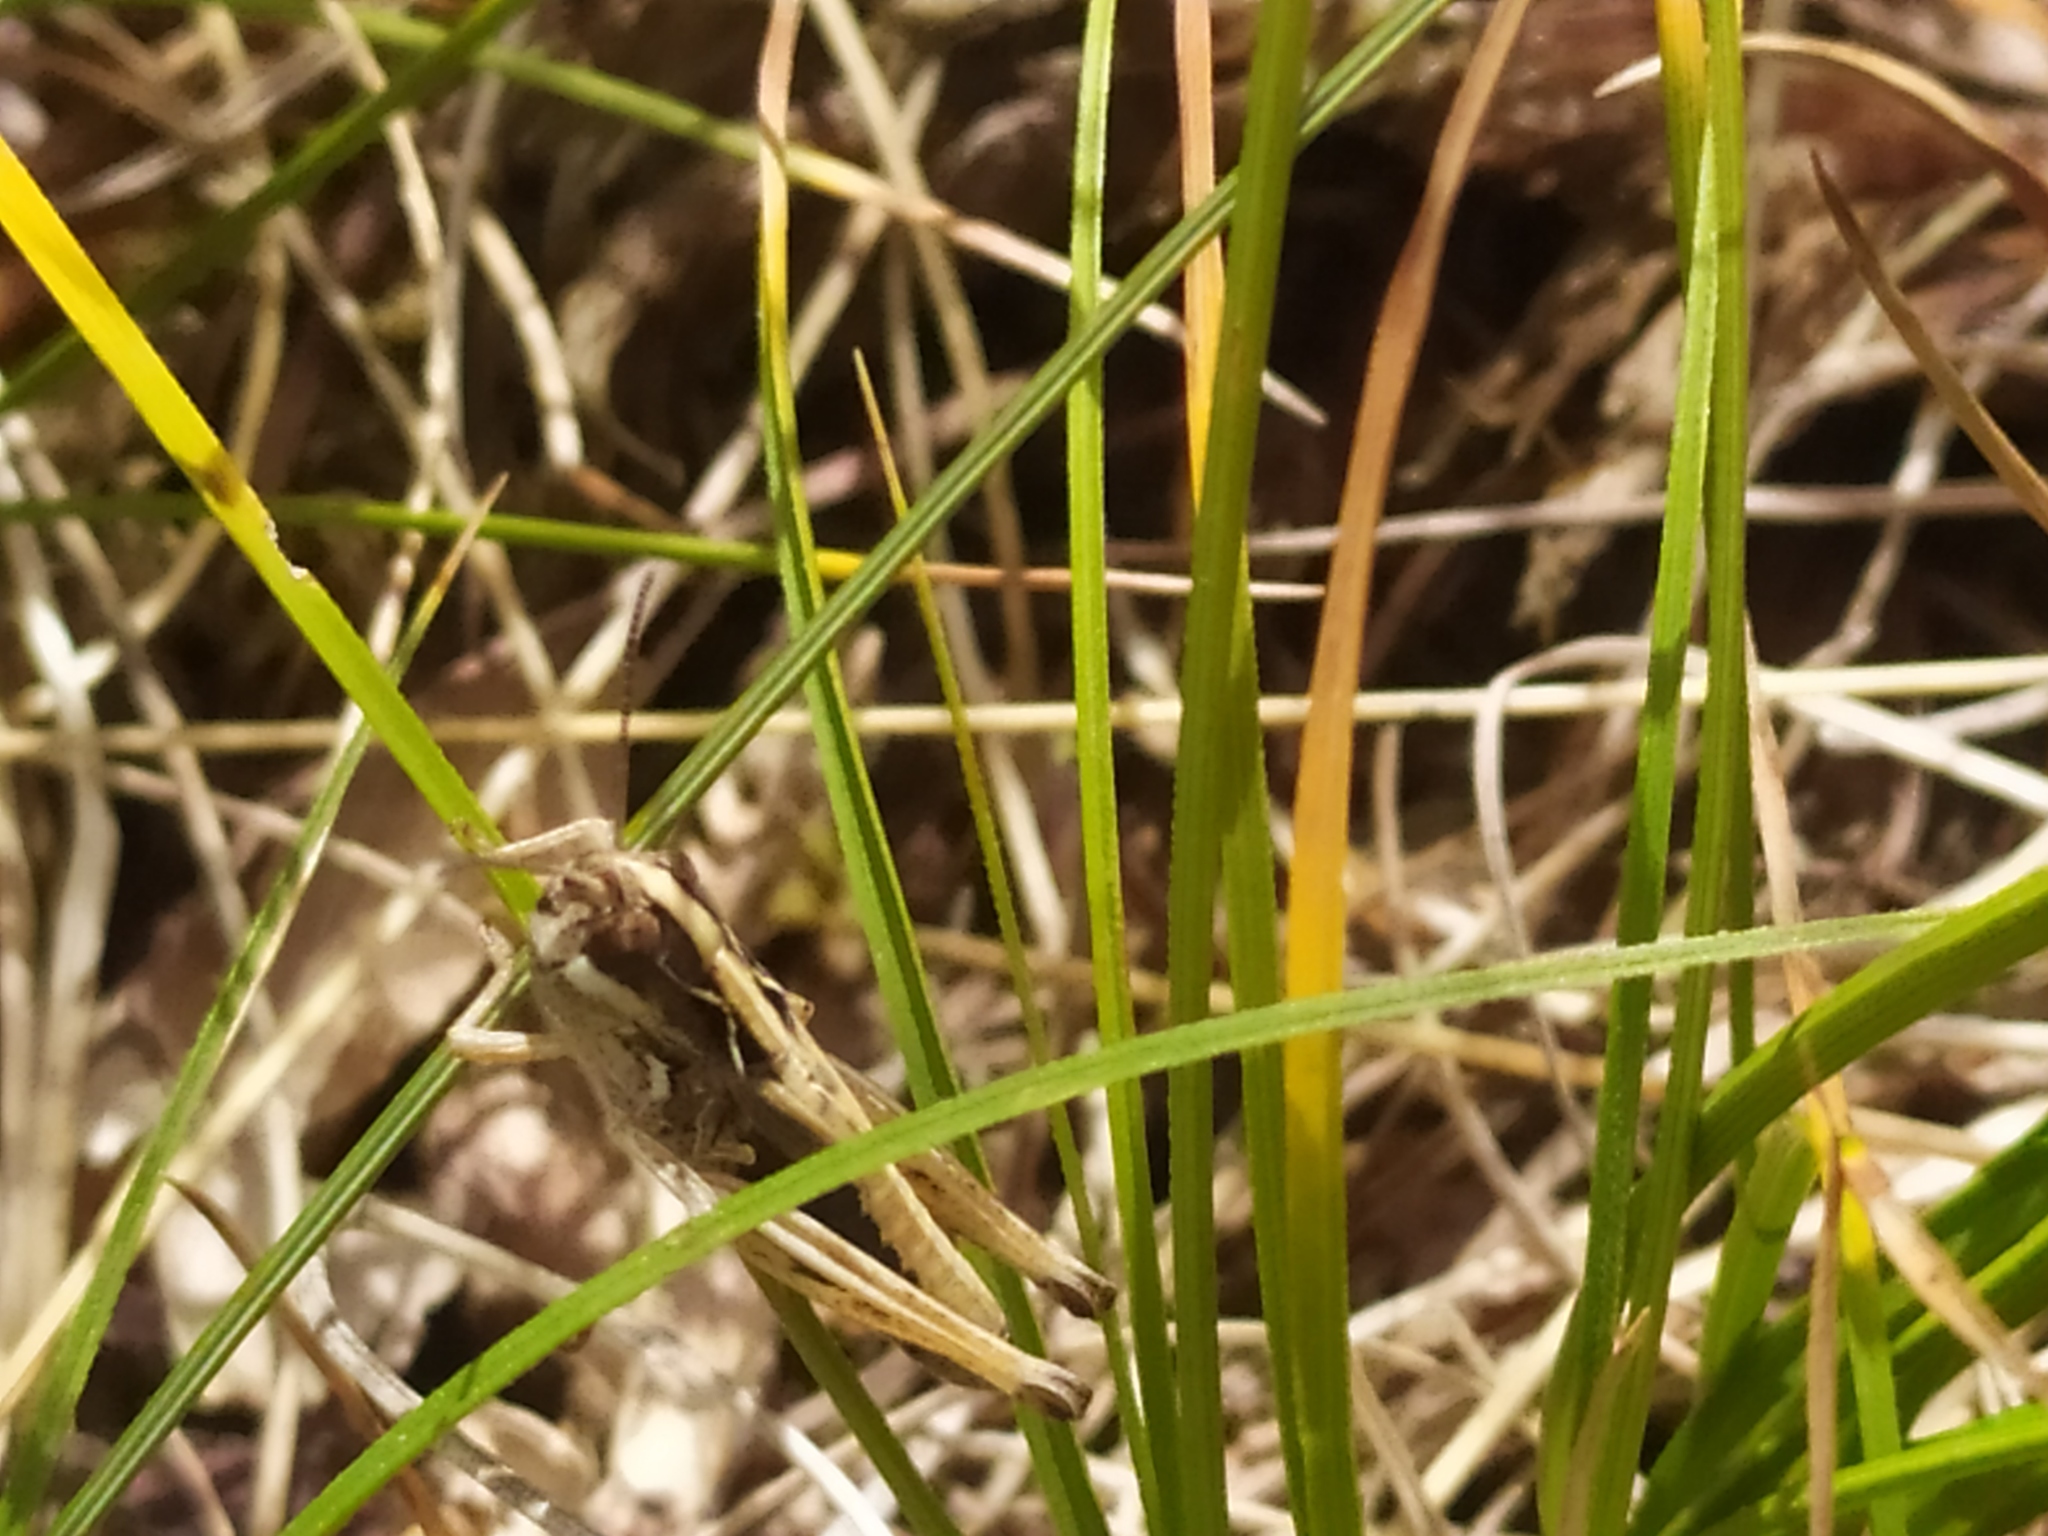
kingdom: Animalia
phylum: Arthropoda
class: Insecta
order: Orthoptera
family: Acrididae
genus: Rammeihippus
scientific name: Rammeihippus dinaricus
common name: Dinarian grasshopper
